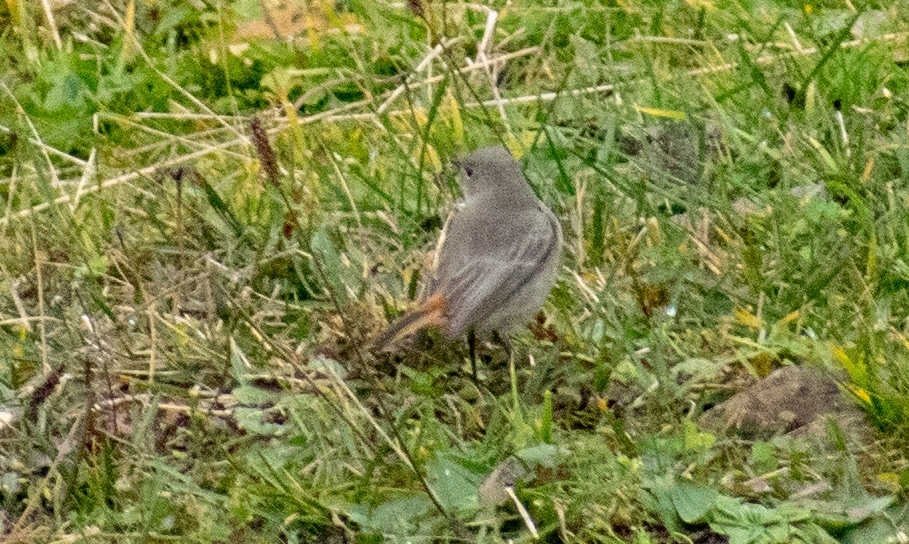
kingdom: Animalia
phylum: Chordata
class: Aves
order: Passeriformes
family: Muscicapidae
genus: Phoenicurus
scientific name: Phoenicurus ochruros
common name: Black redstart
